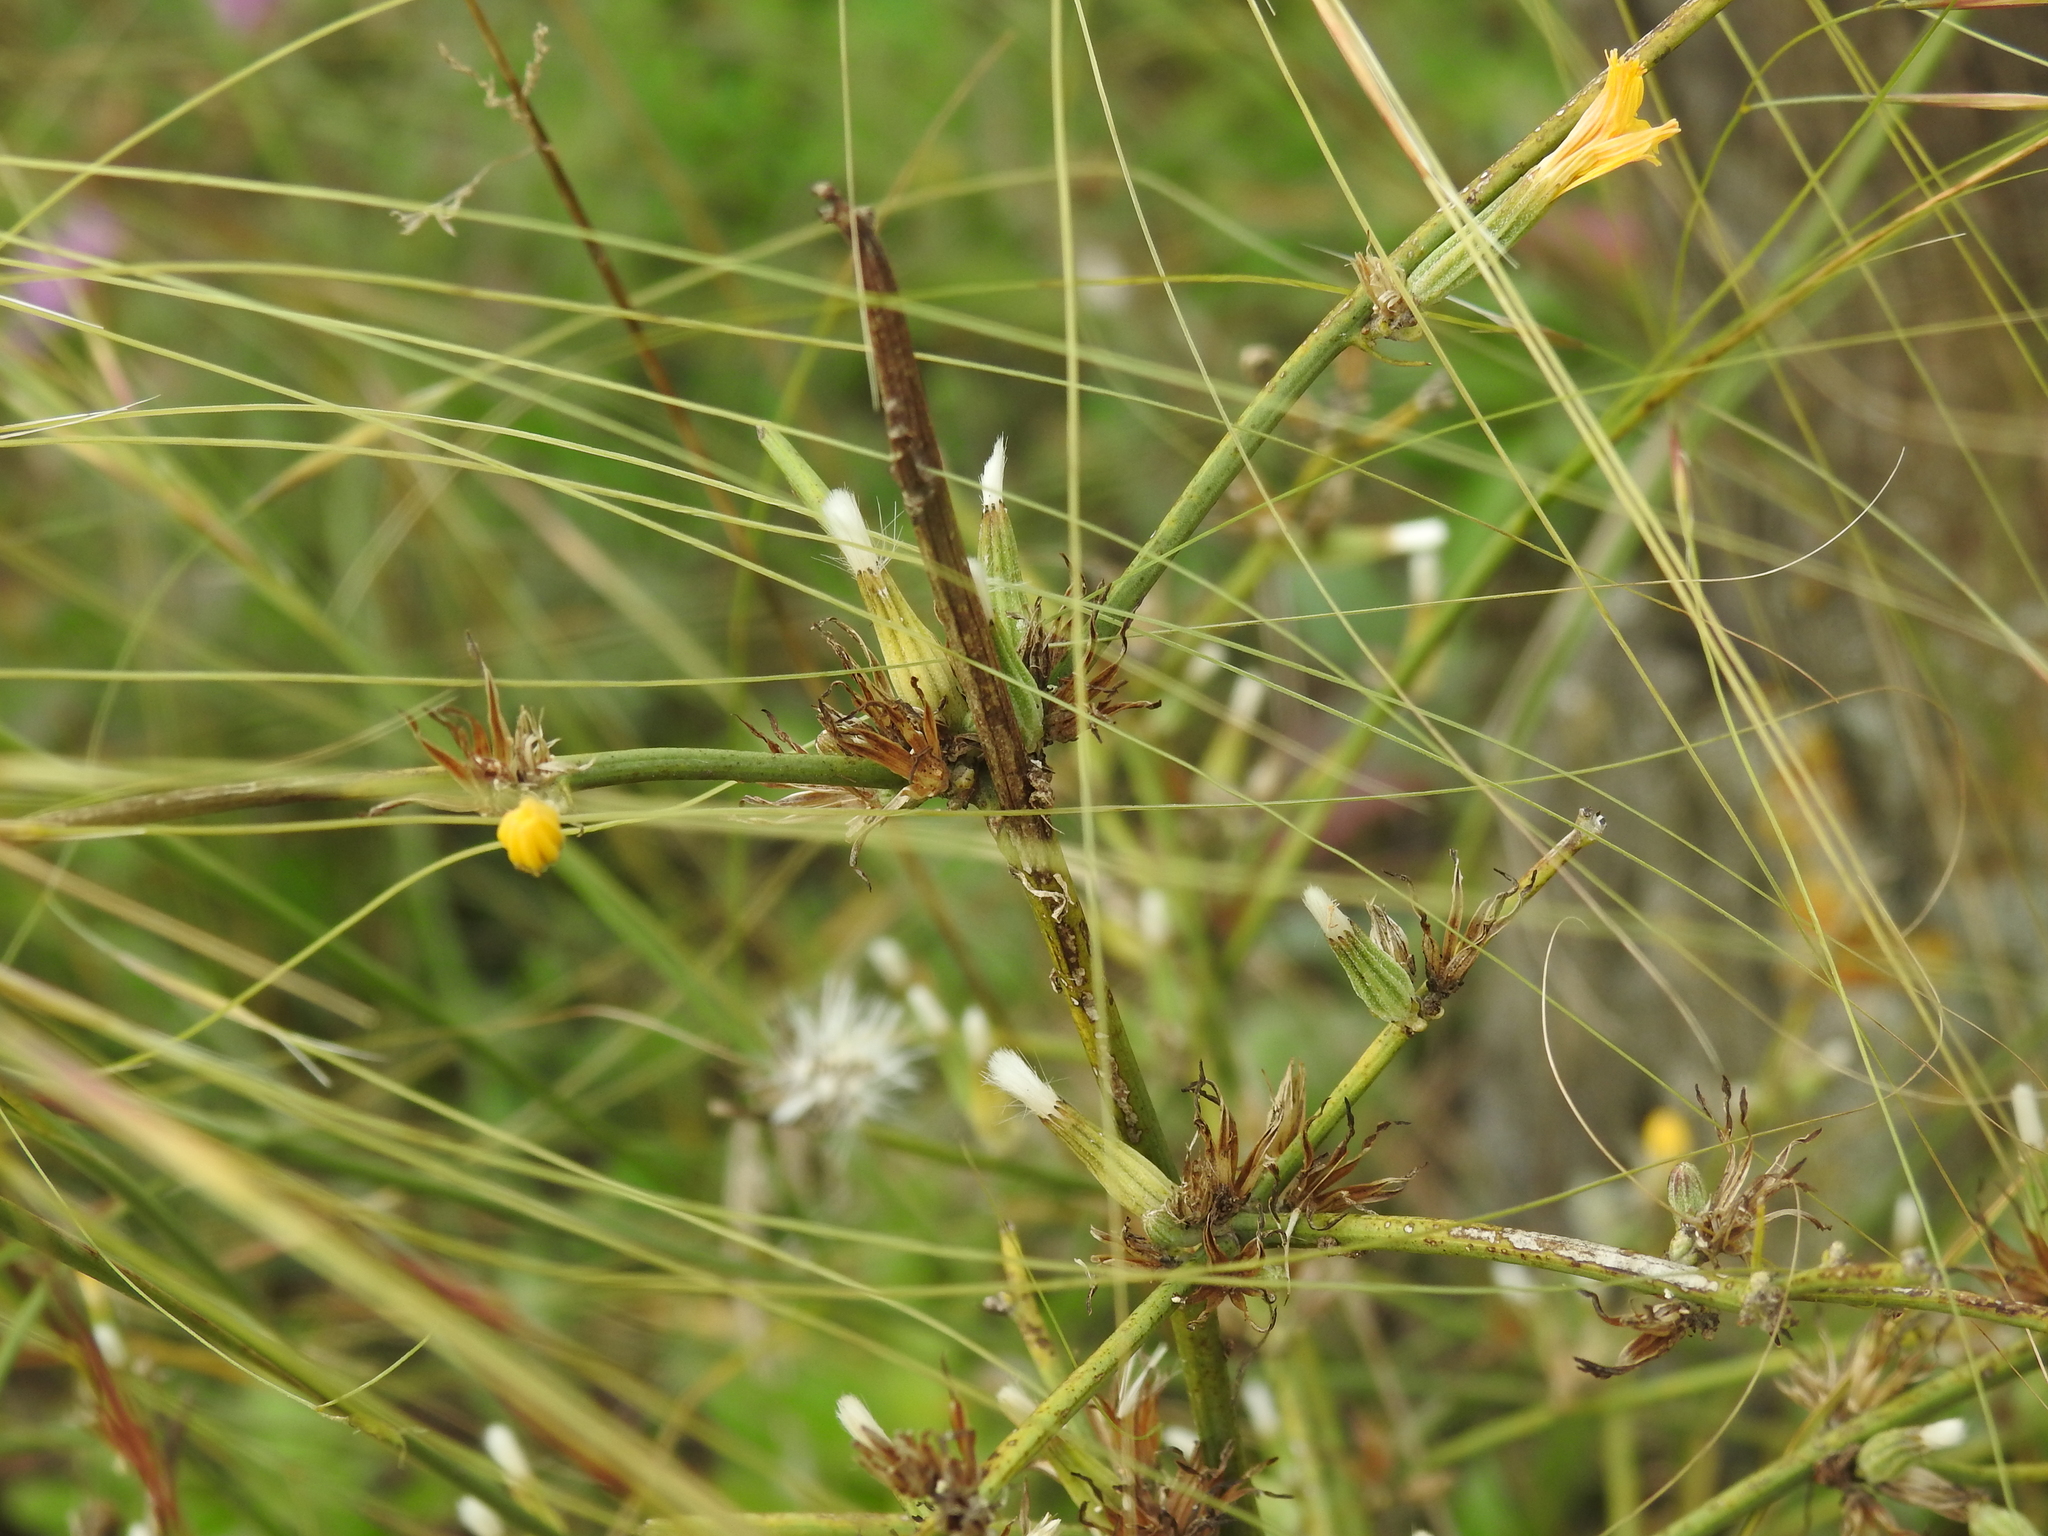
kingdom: Plantae
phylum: Tracheophyta
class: Magnoliopsida
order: Asterales
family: Asteraceae
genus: Chondrilla
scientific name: Chondrilla juncea
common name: Skeleton weed
